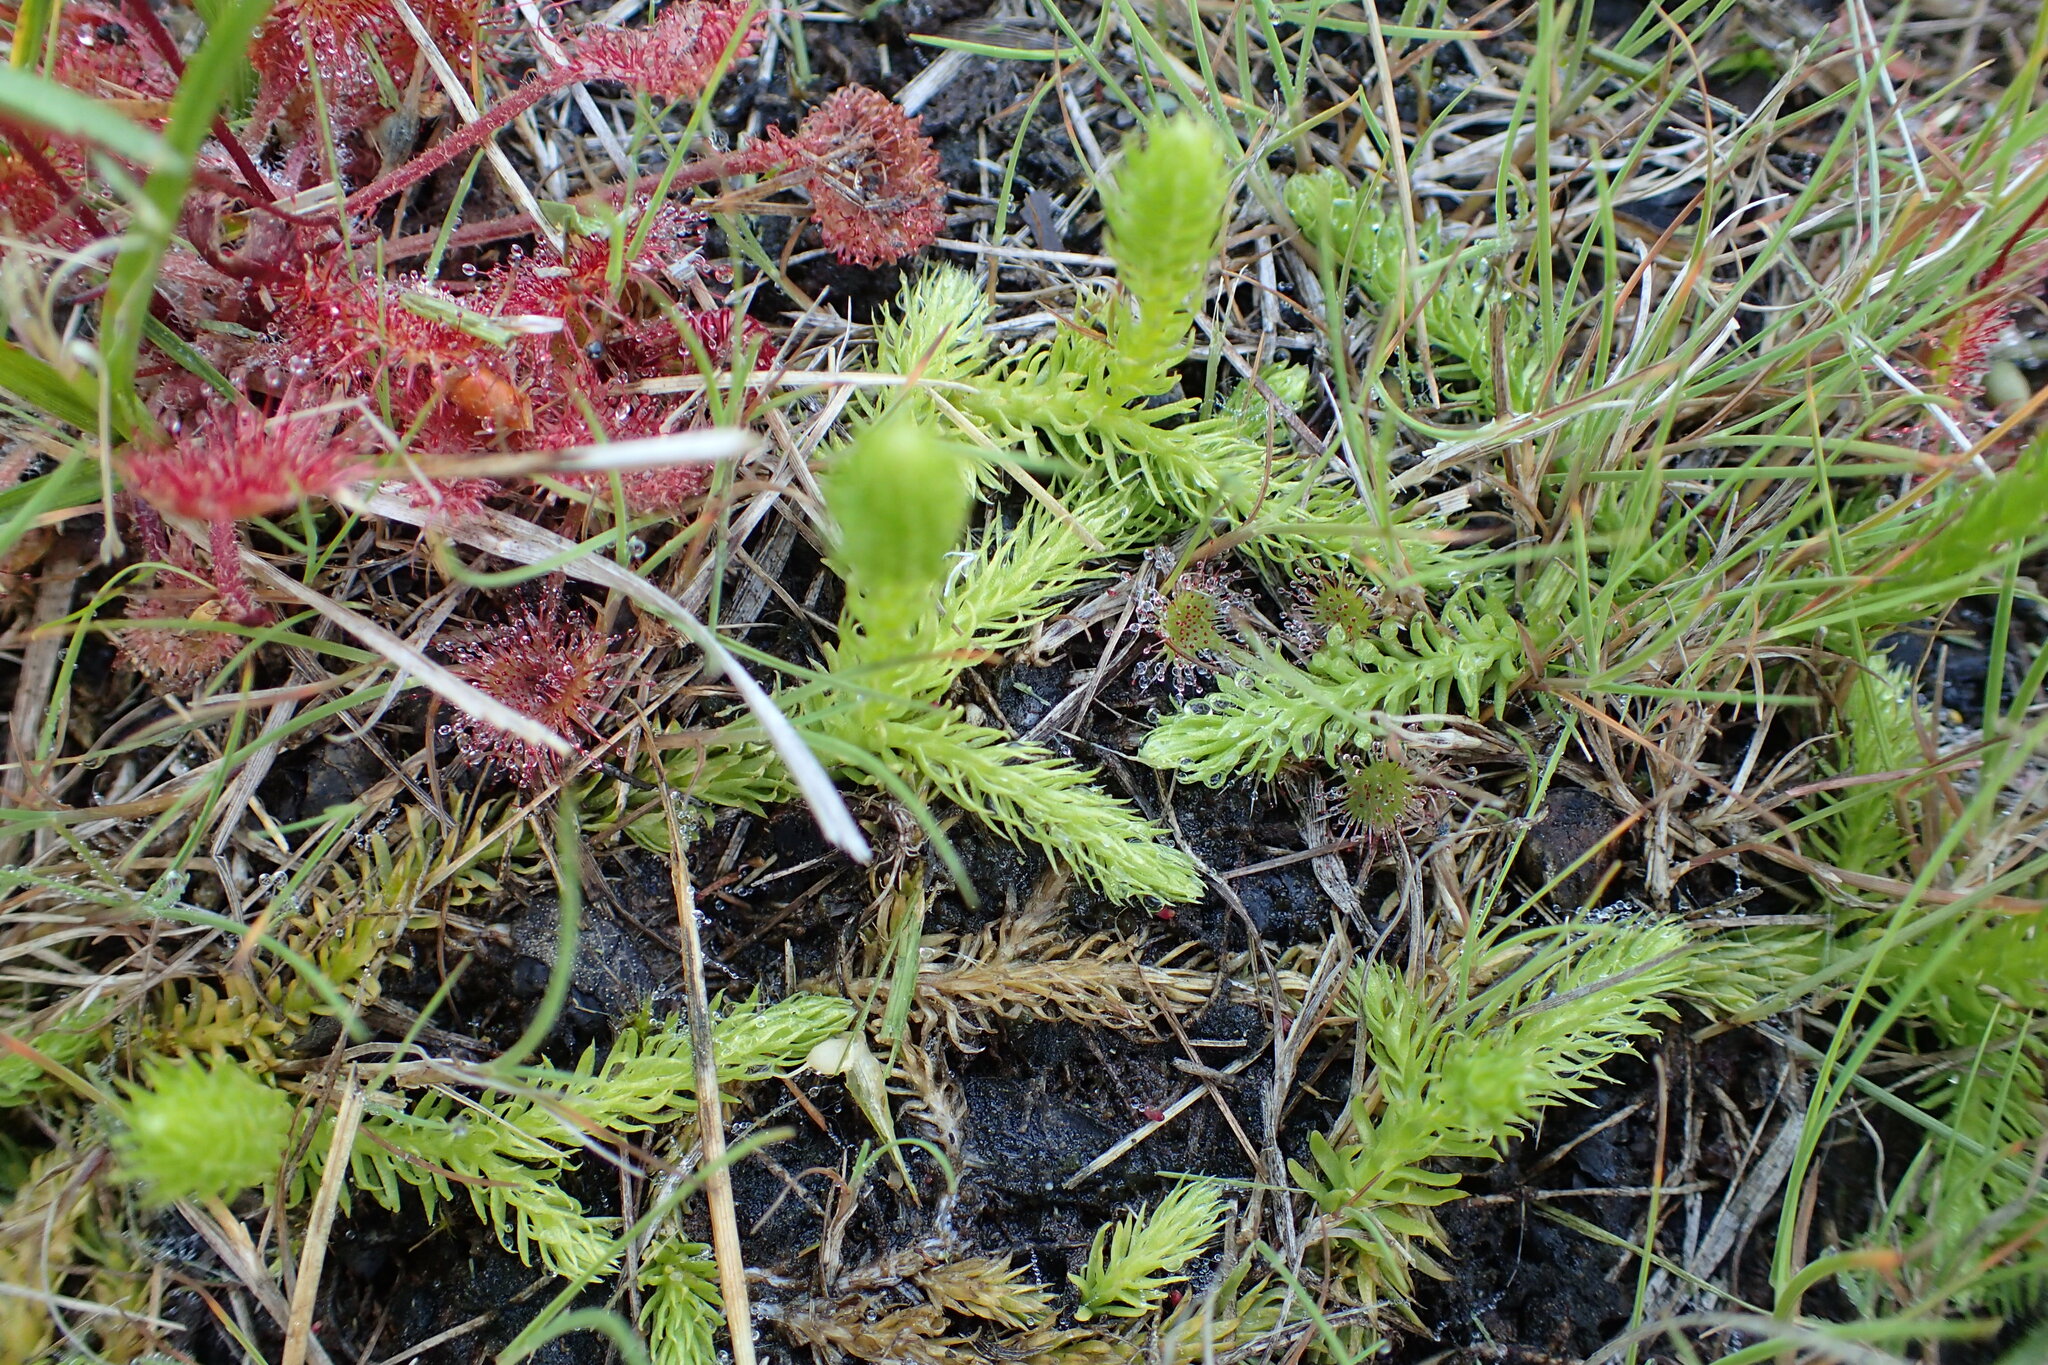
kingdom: Plantae
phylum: Tracheophyta
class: Lycopodiopsida
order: Lycopodiales
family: Lycopodiaceae
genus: Lycopodiella
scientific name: Lycopodiella inundata
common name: Marsh clubmoss
